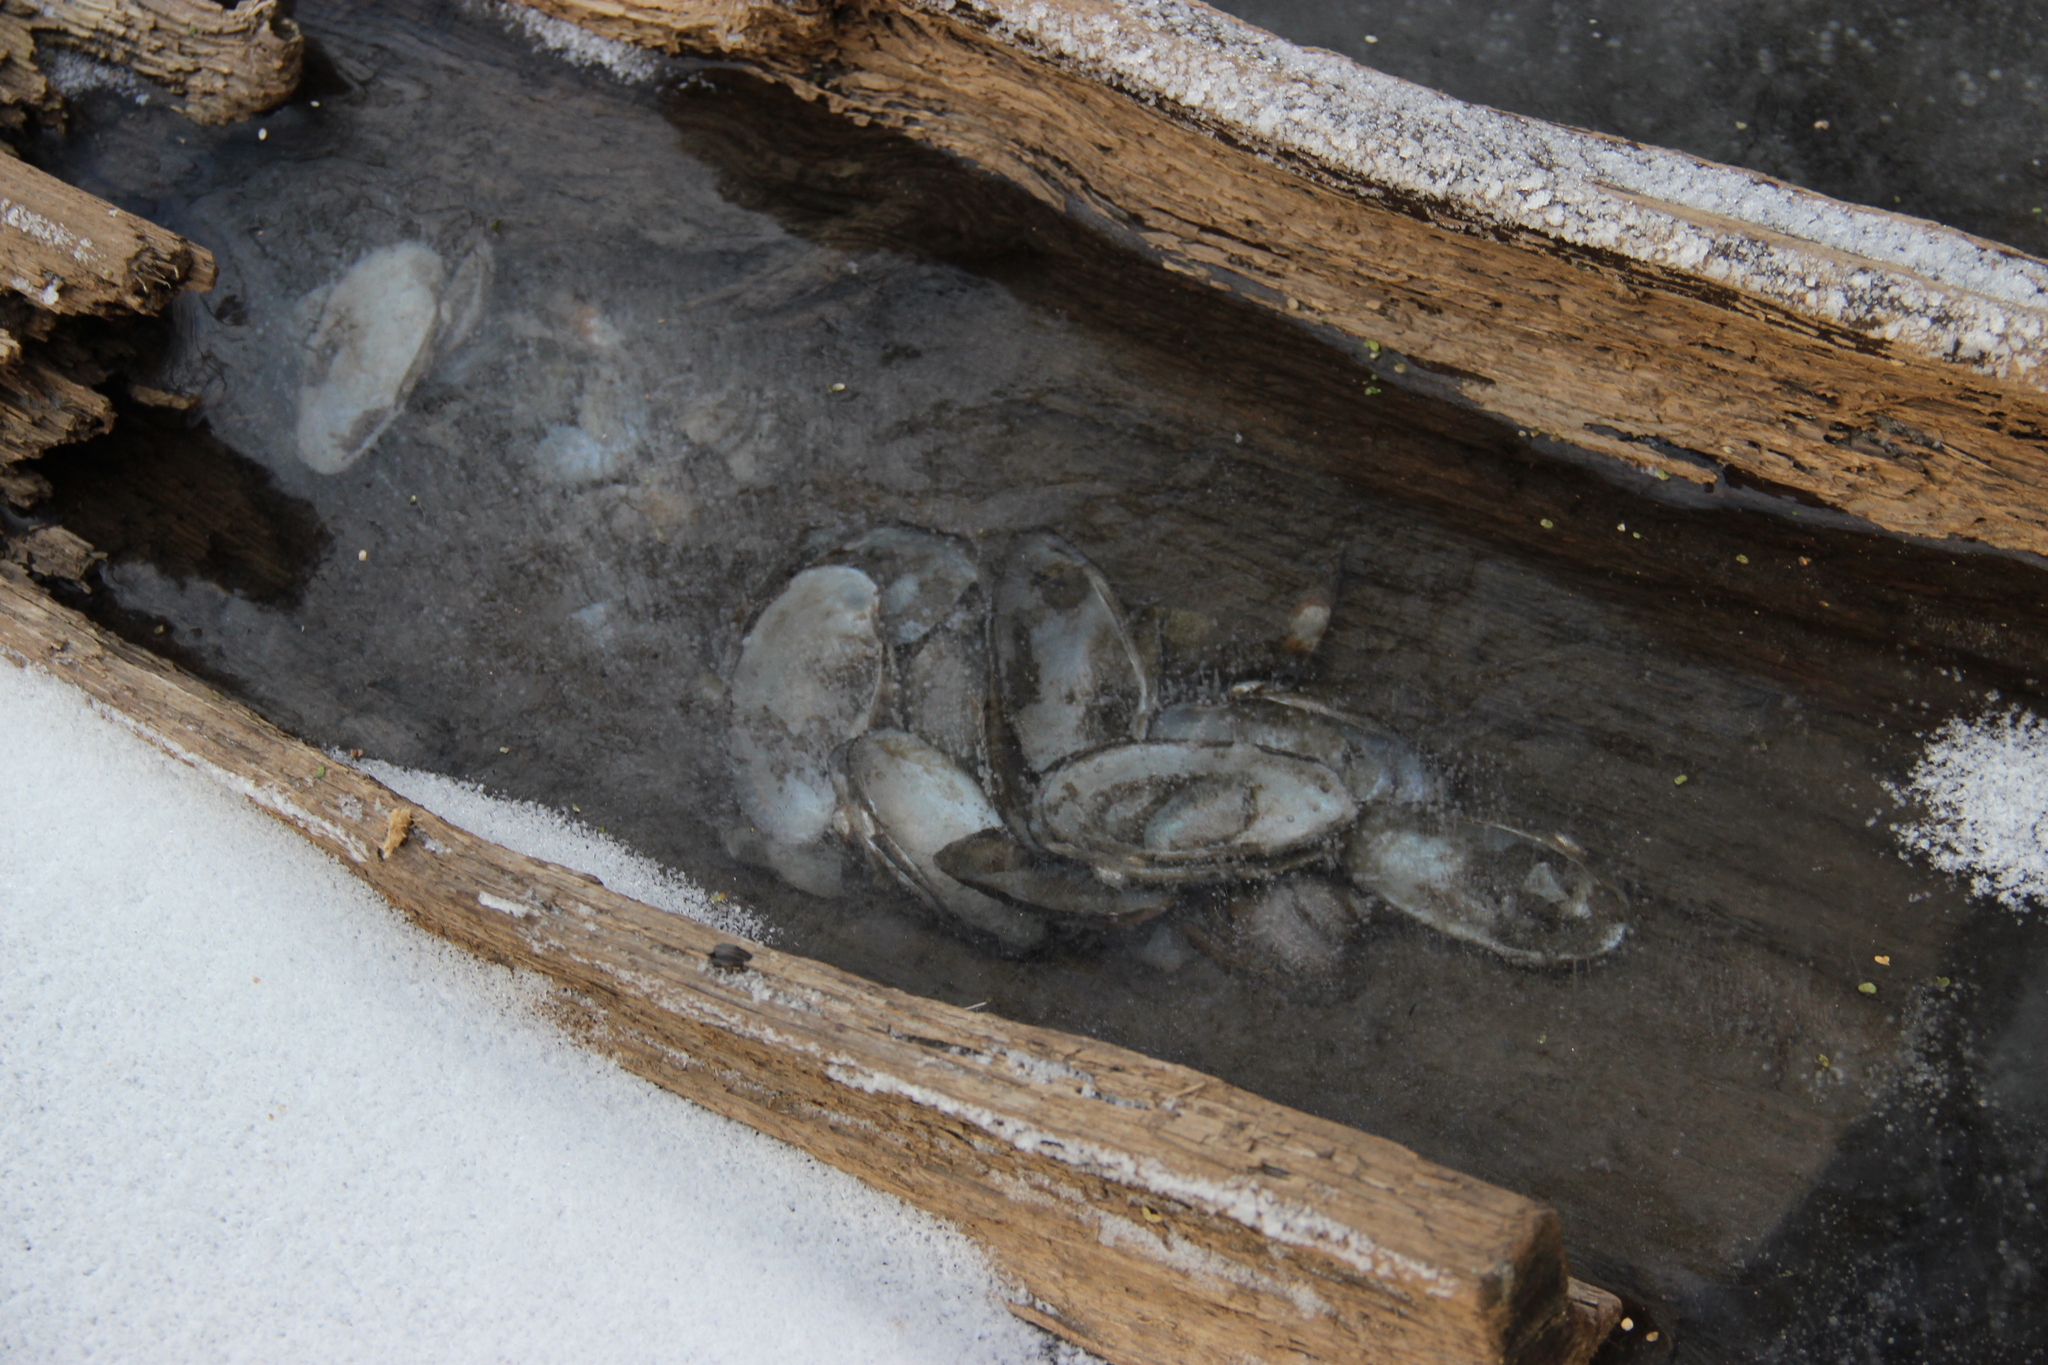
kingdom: Animalia
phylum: Mollusca
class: Bivalvia
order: Unionida
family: Unionidae
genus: Unio
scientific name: Unio pictorum
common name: Painter's mussel
